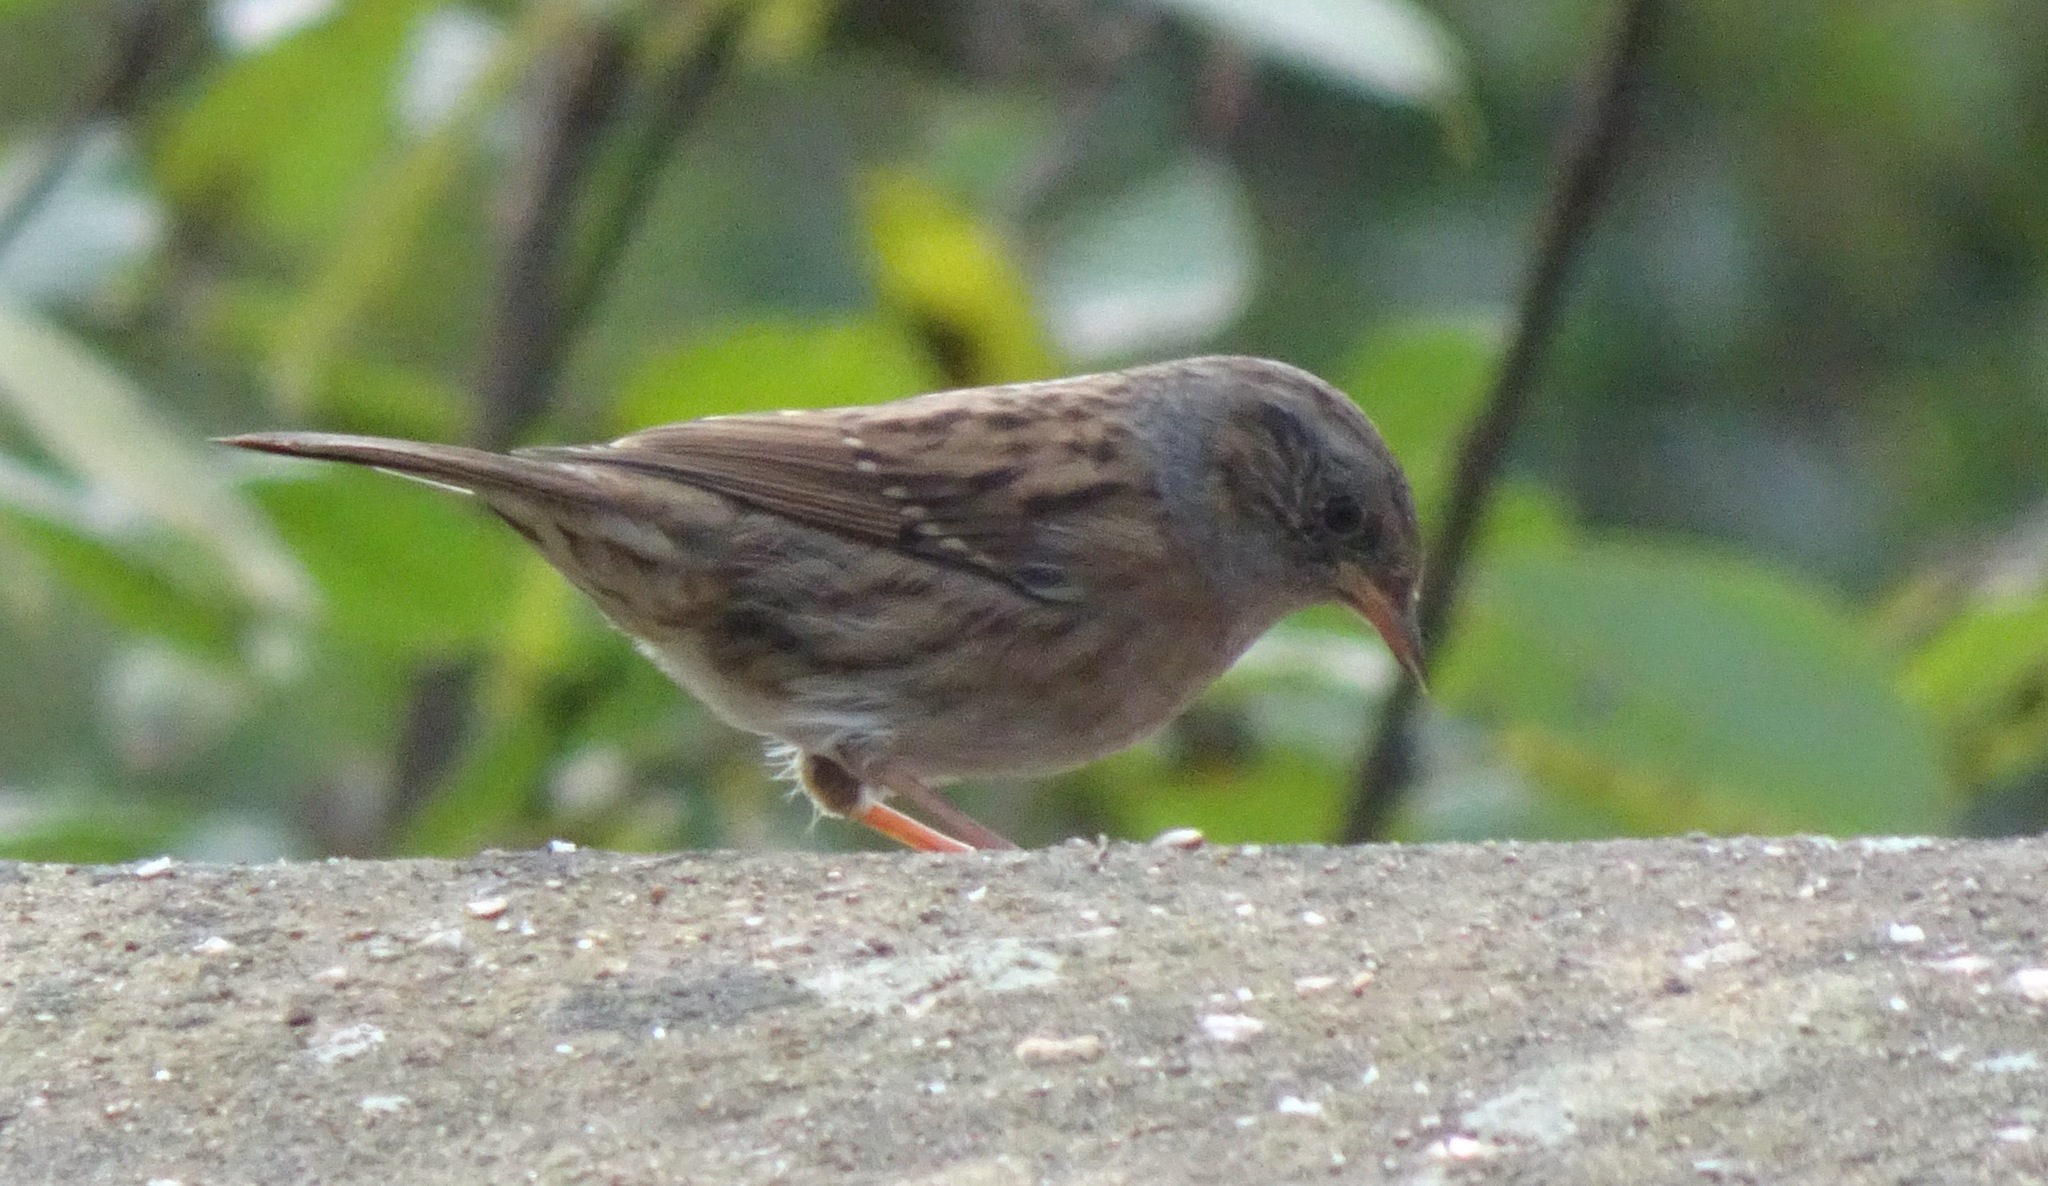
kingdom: Animalia
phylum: Chordata
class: Aves
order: Passeriformes
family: Prunellidae
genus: Prunella
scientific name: Prunella modularis
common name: Dunnock
